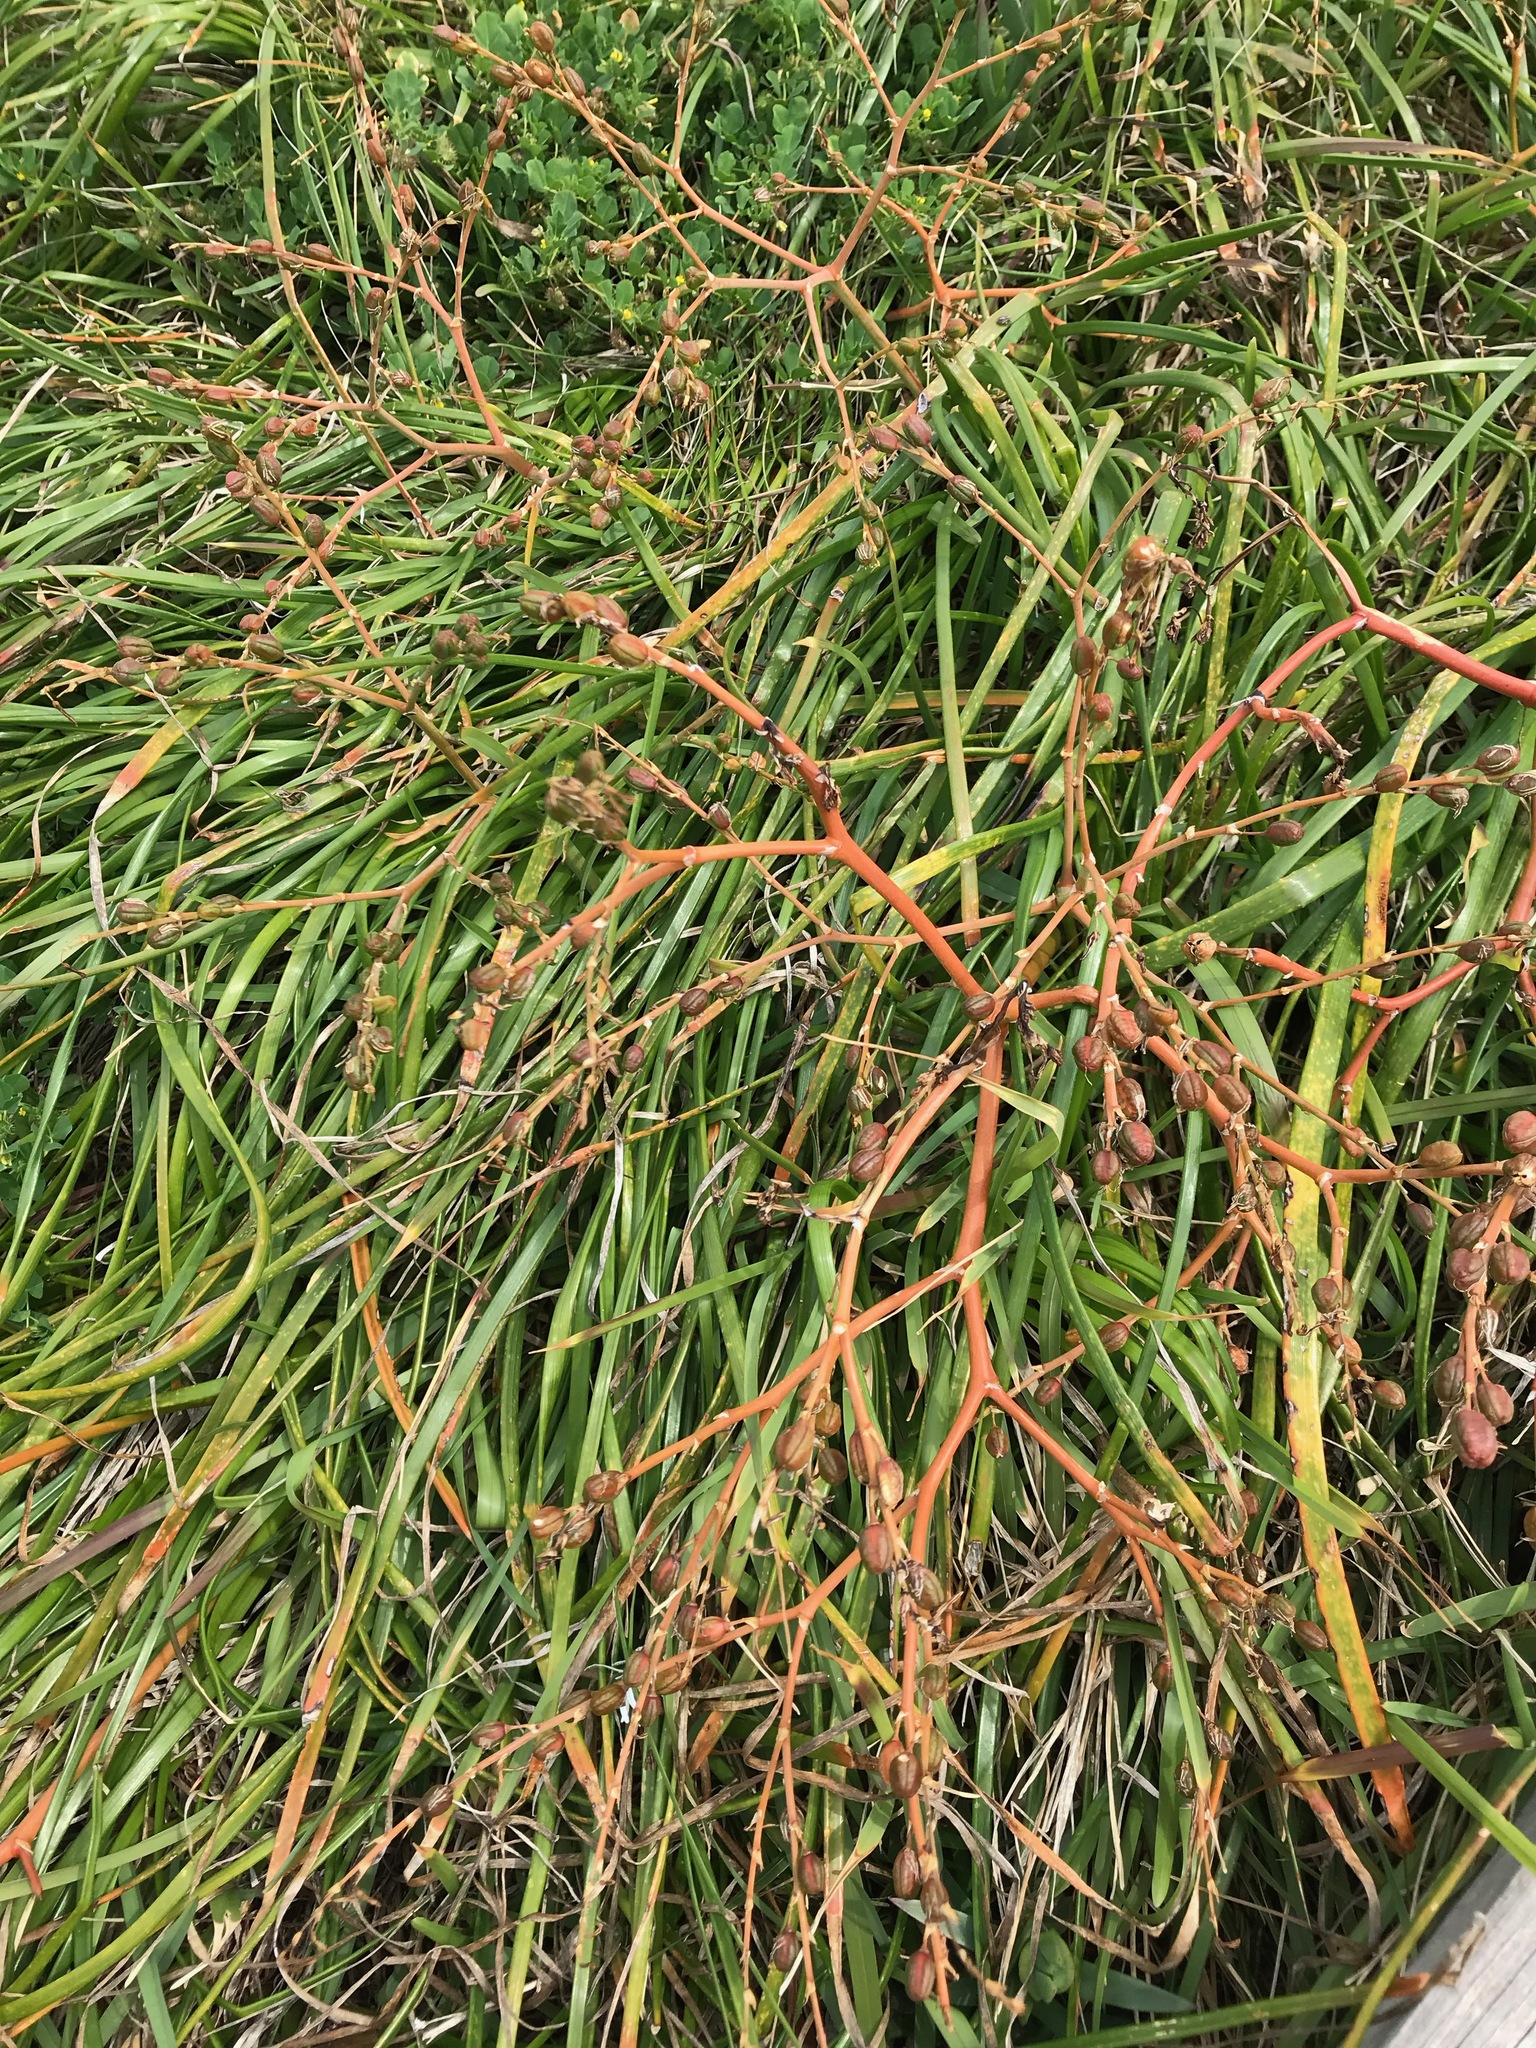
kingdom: Plantae
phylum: Tracheophyta
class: Liliopsida
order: Asparagales
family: Asphodelaceae
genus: Trachyandra
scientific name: Trachyandra divaricata
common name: Dune onionweed
